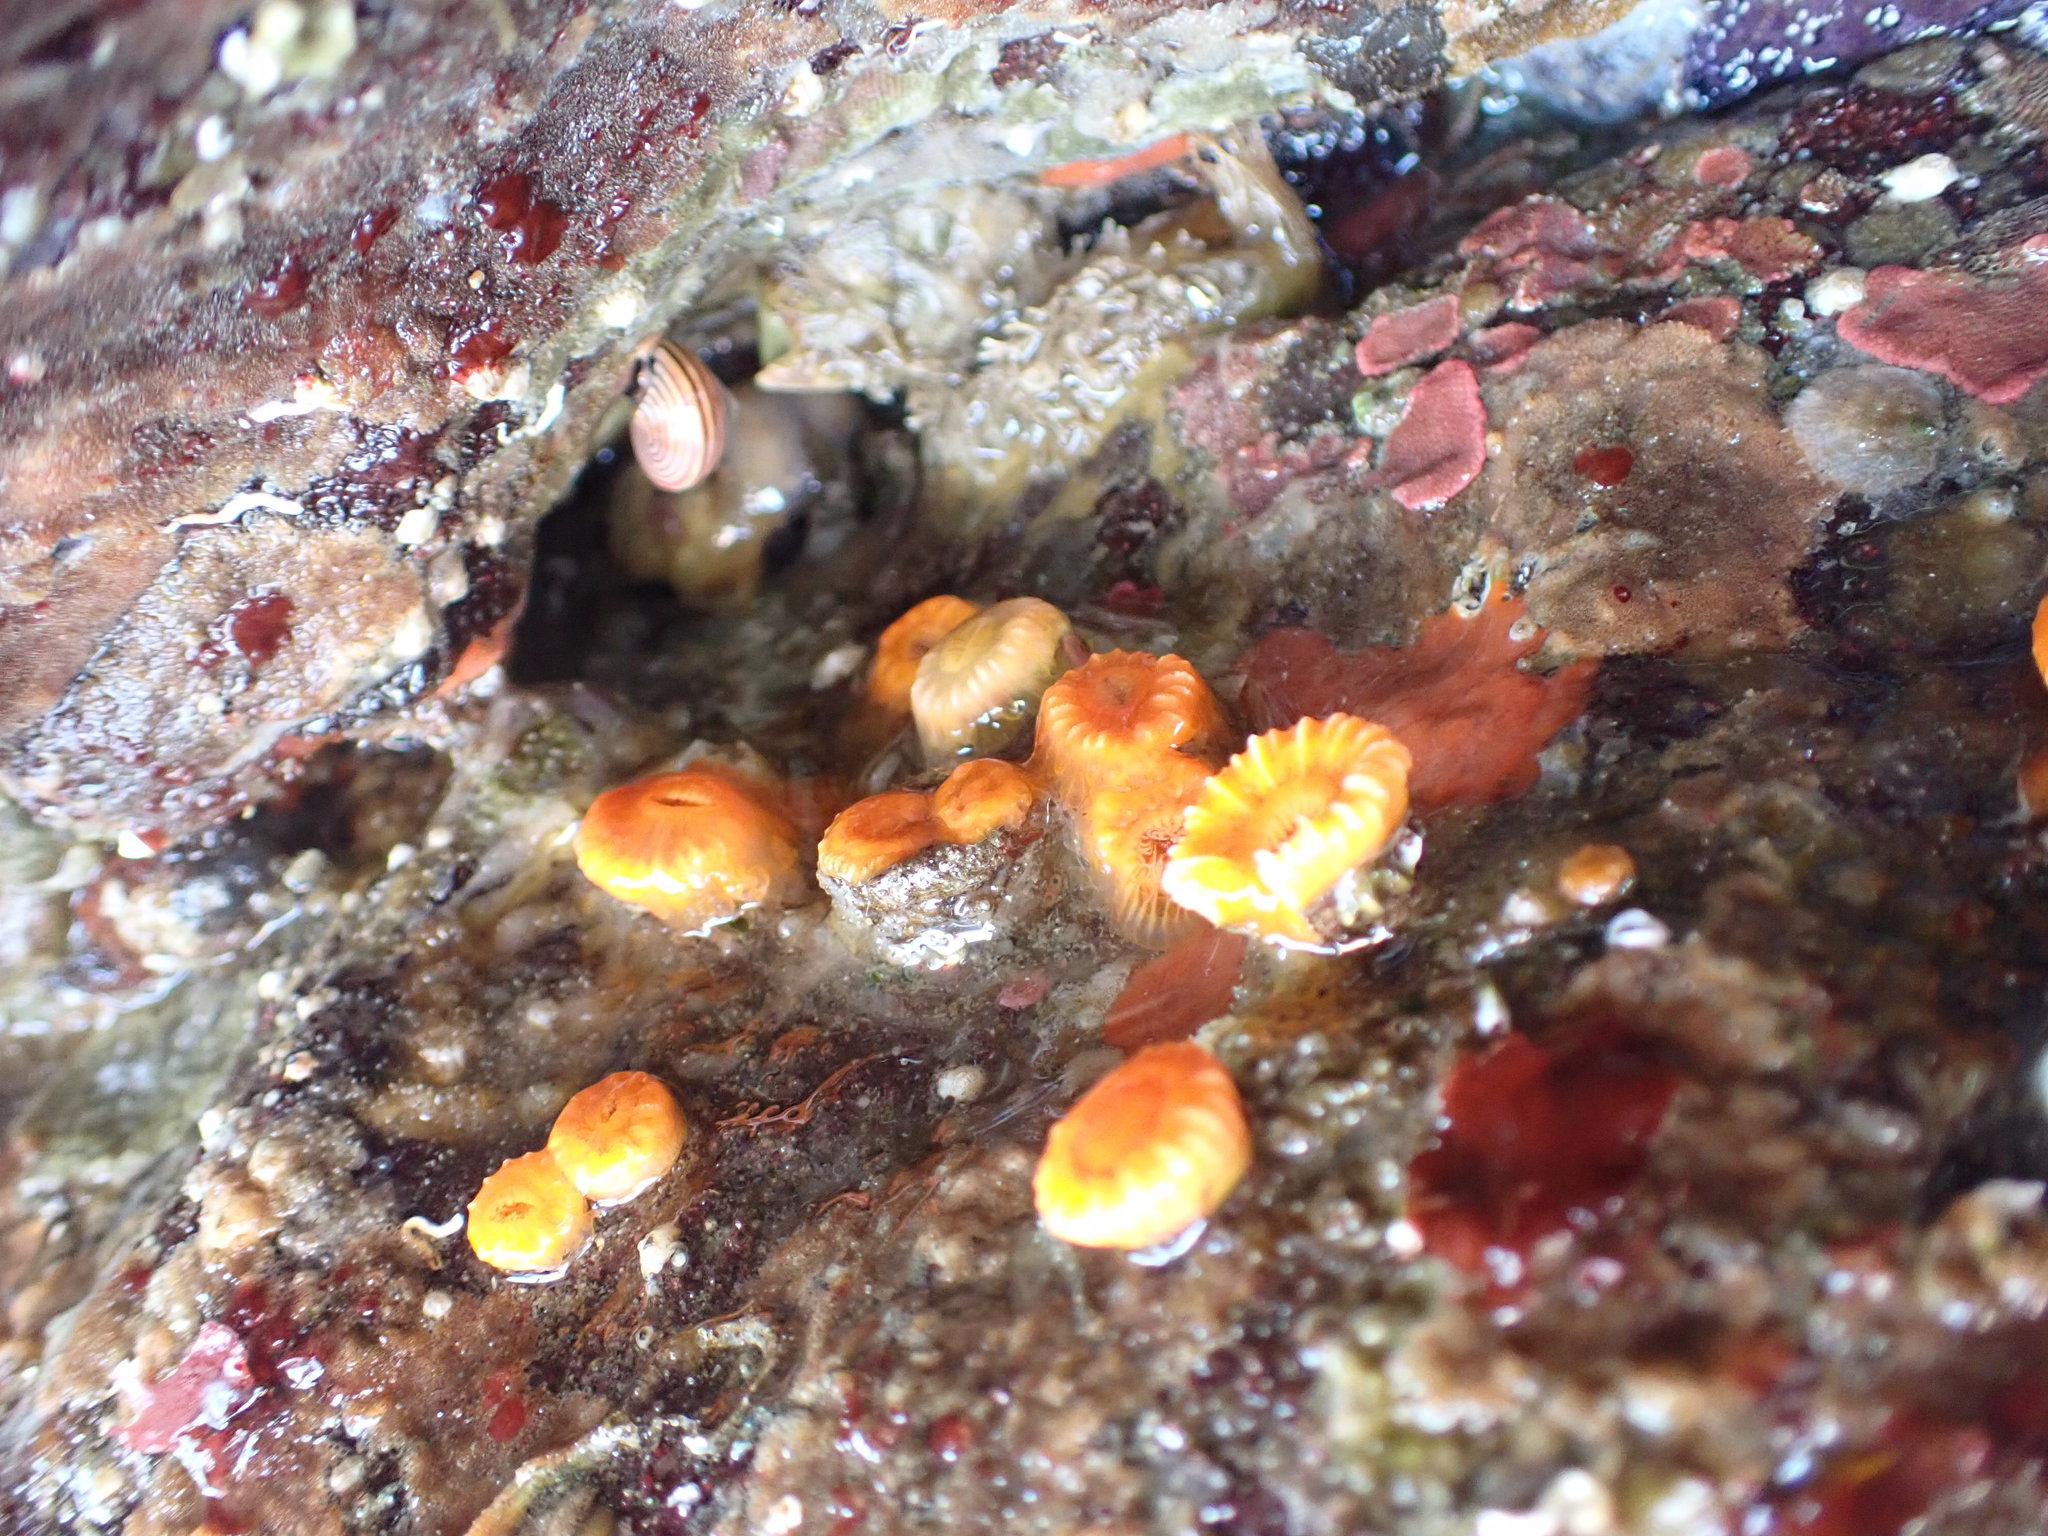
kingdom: Animalia
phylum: Cnidaria
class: Anthozoa
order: Scleractinia
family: Dendrophylliidae
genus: Balanophyllia
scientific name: Balanophyllia elegans
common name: Orange stony coral
